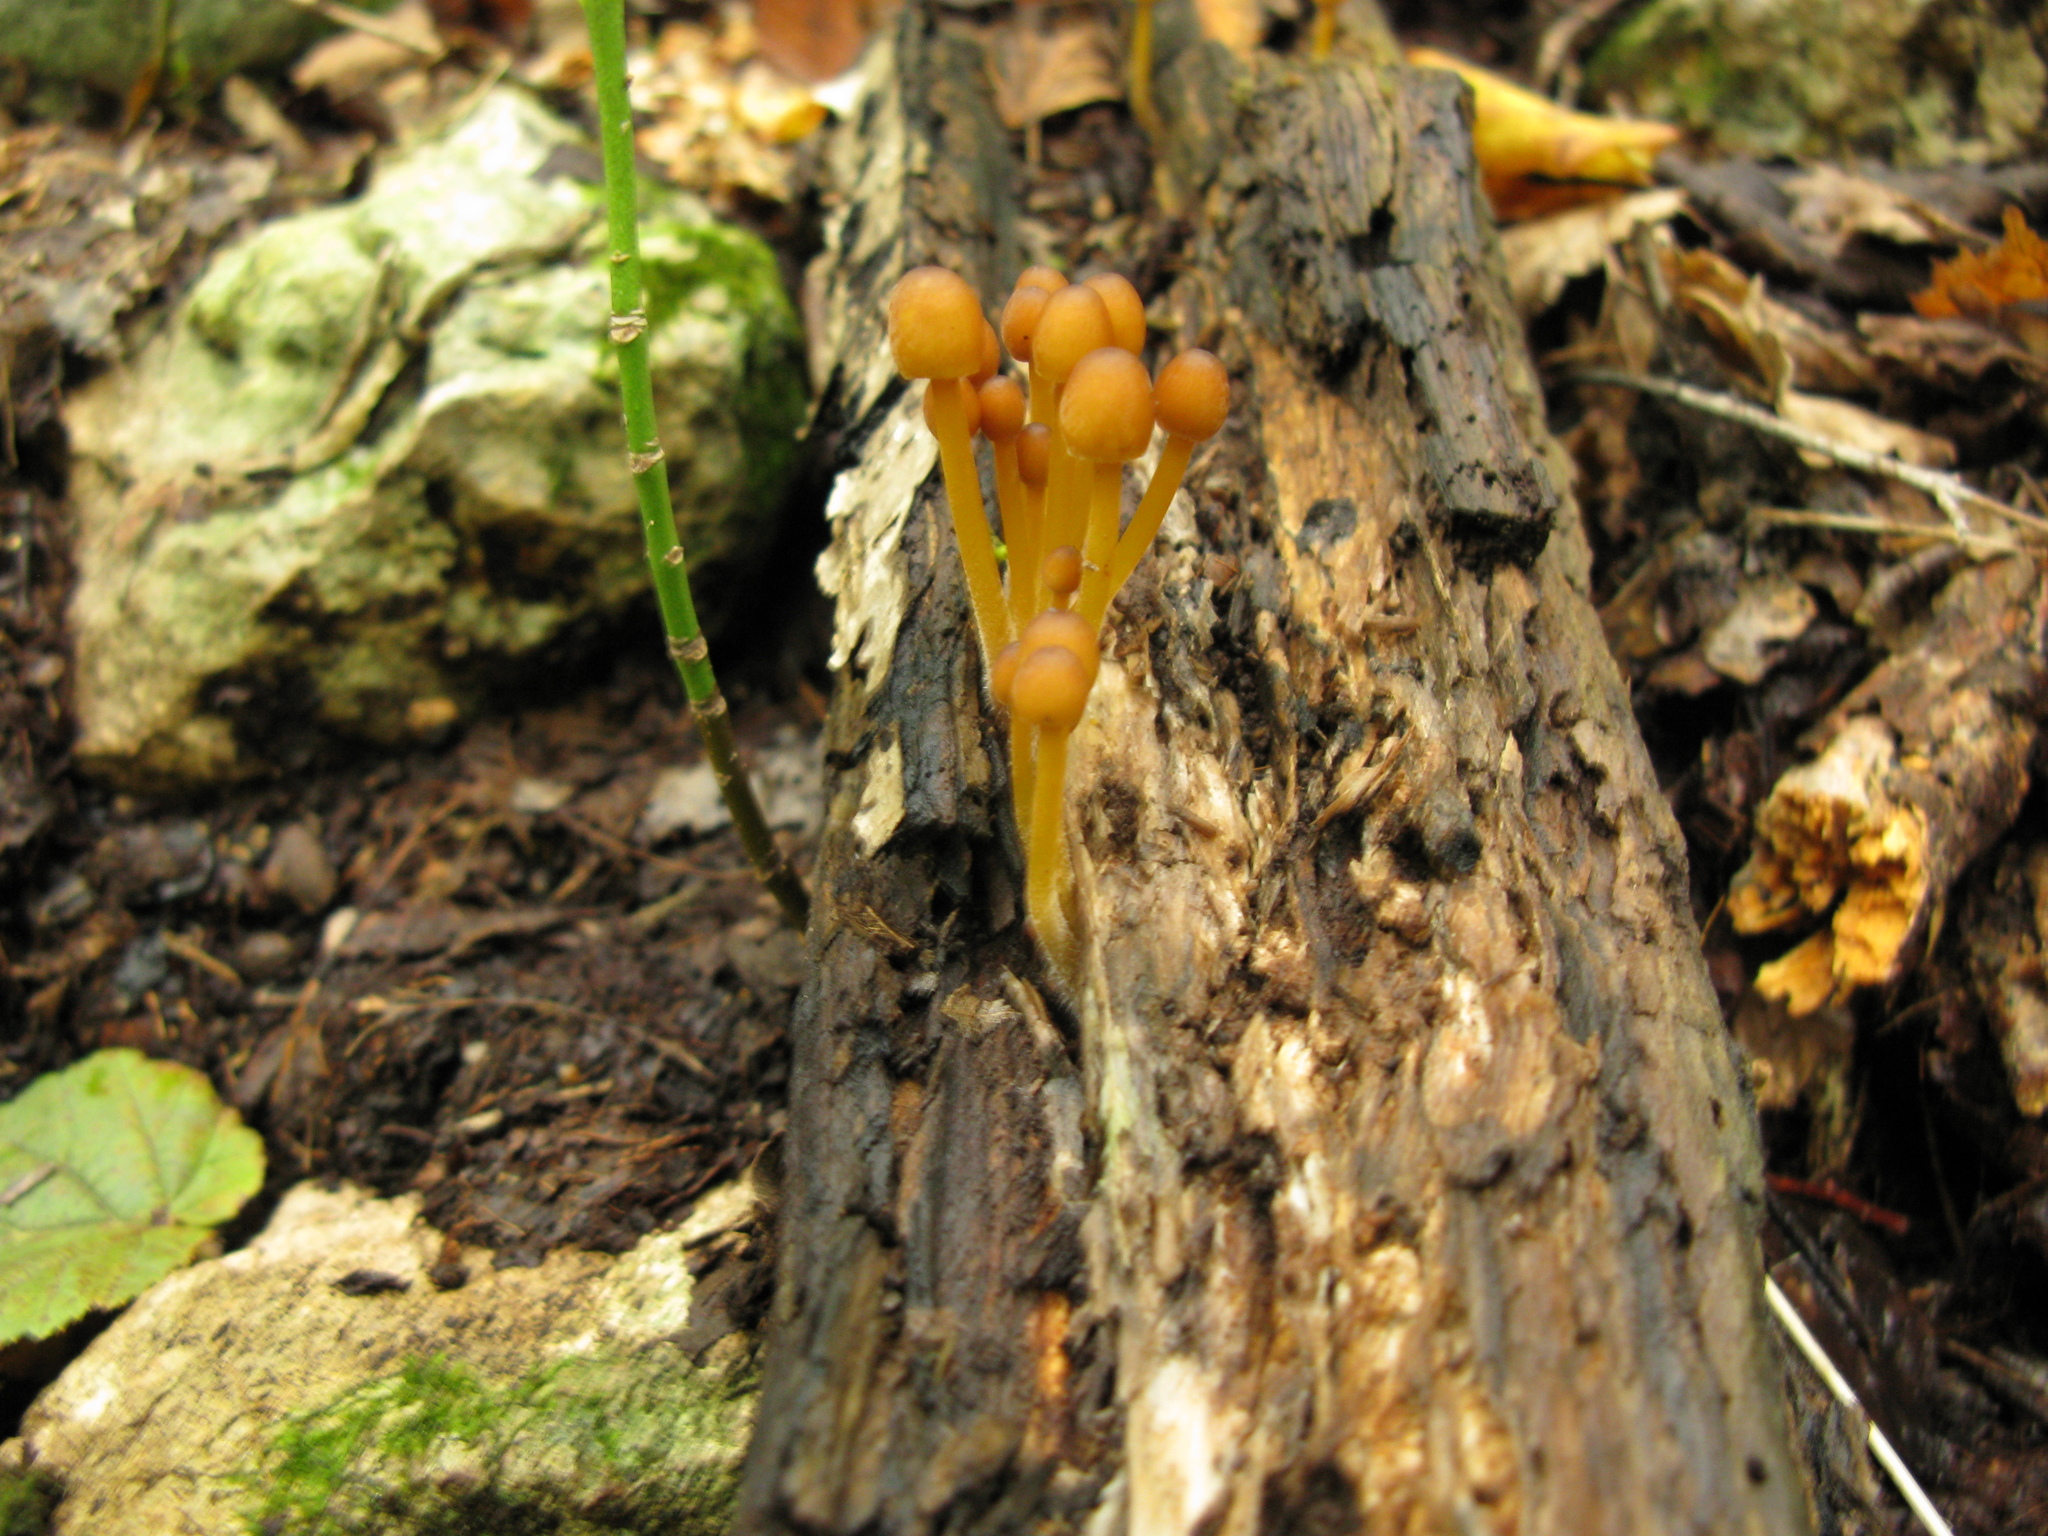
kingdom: Fungi
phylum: Basidiomycota
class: Agaricomycetes
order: Agaricales
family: Mycenaceae
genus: Mycena
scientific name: Mycena renati
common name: Beautiful bonnet
